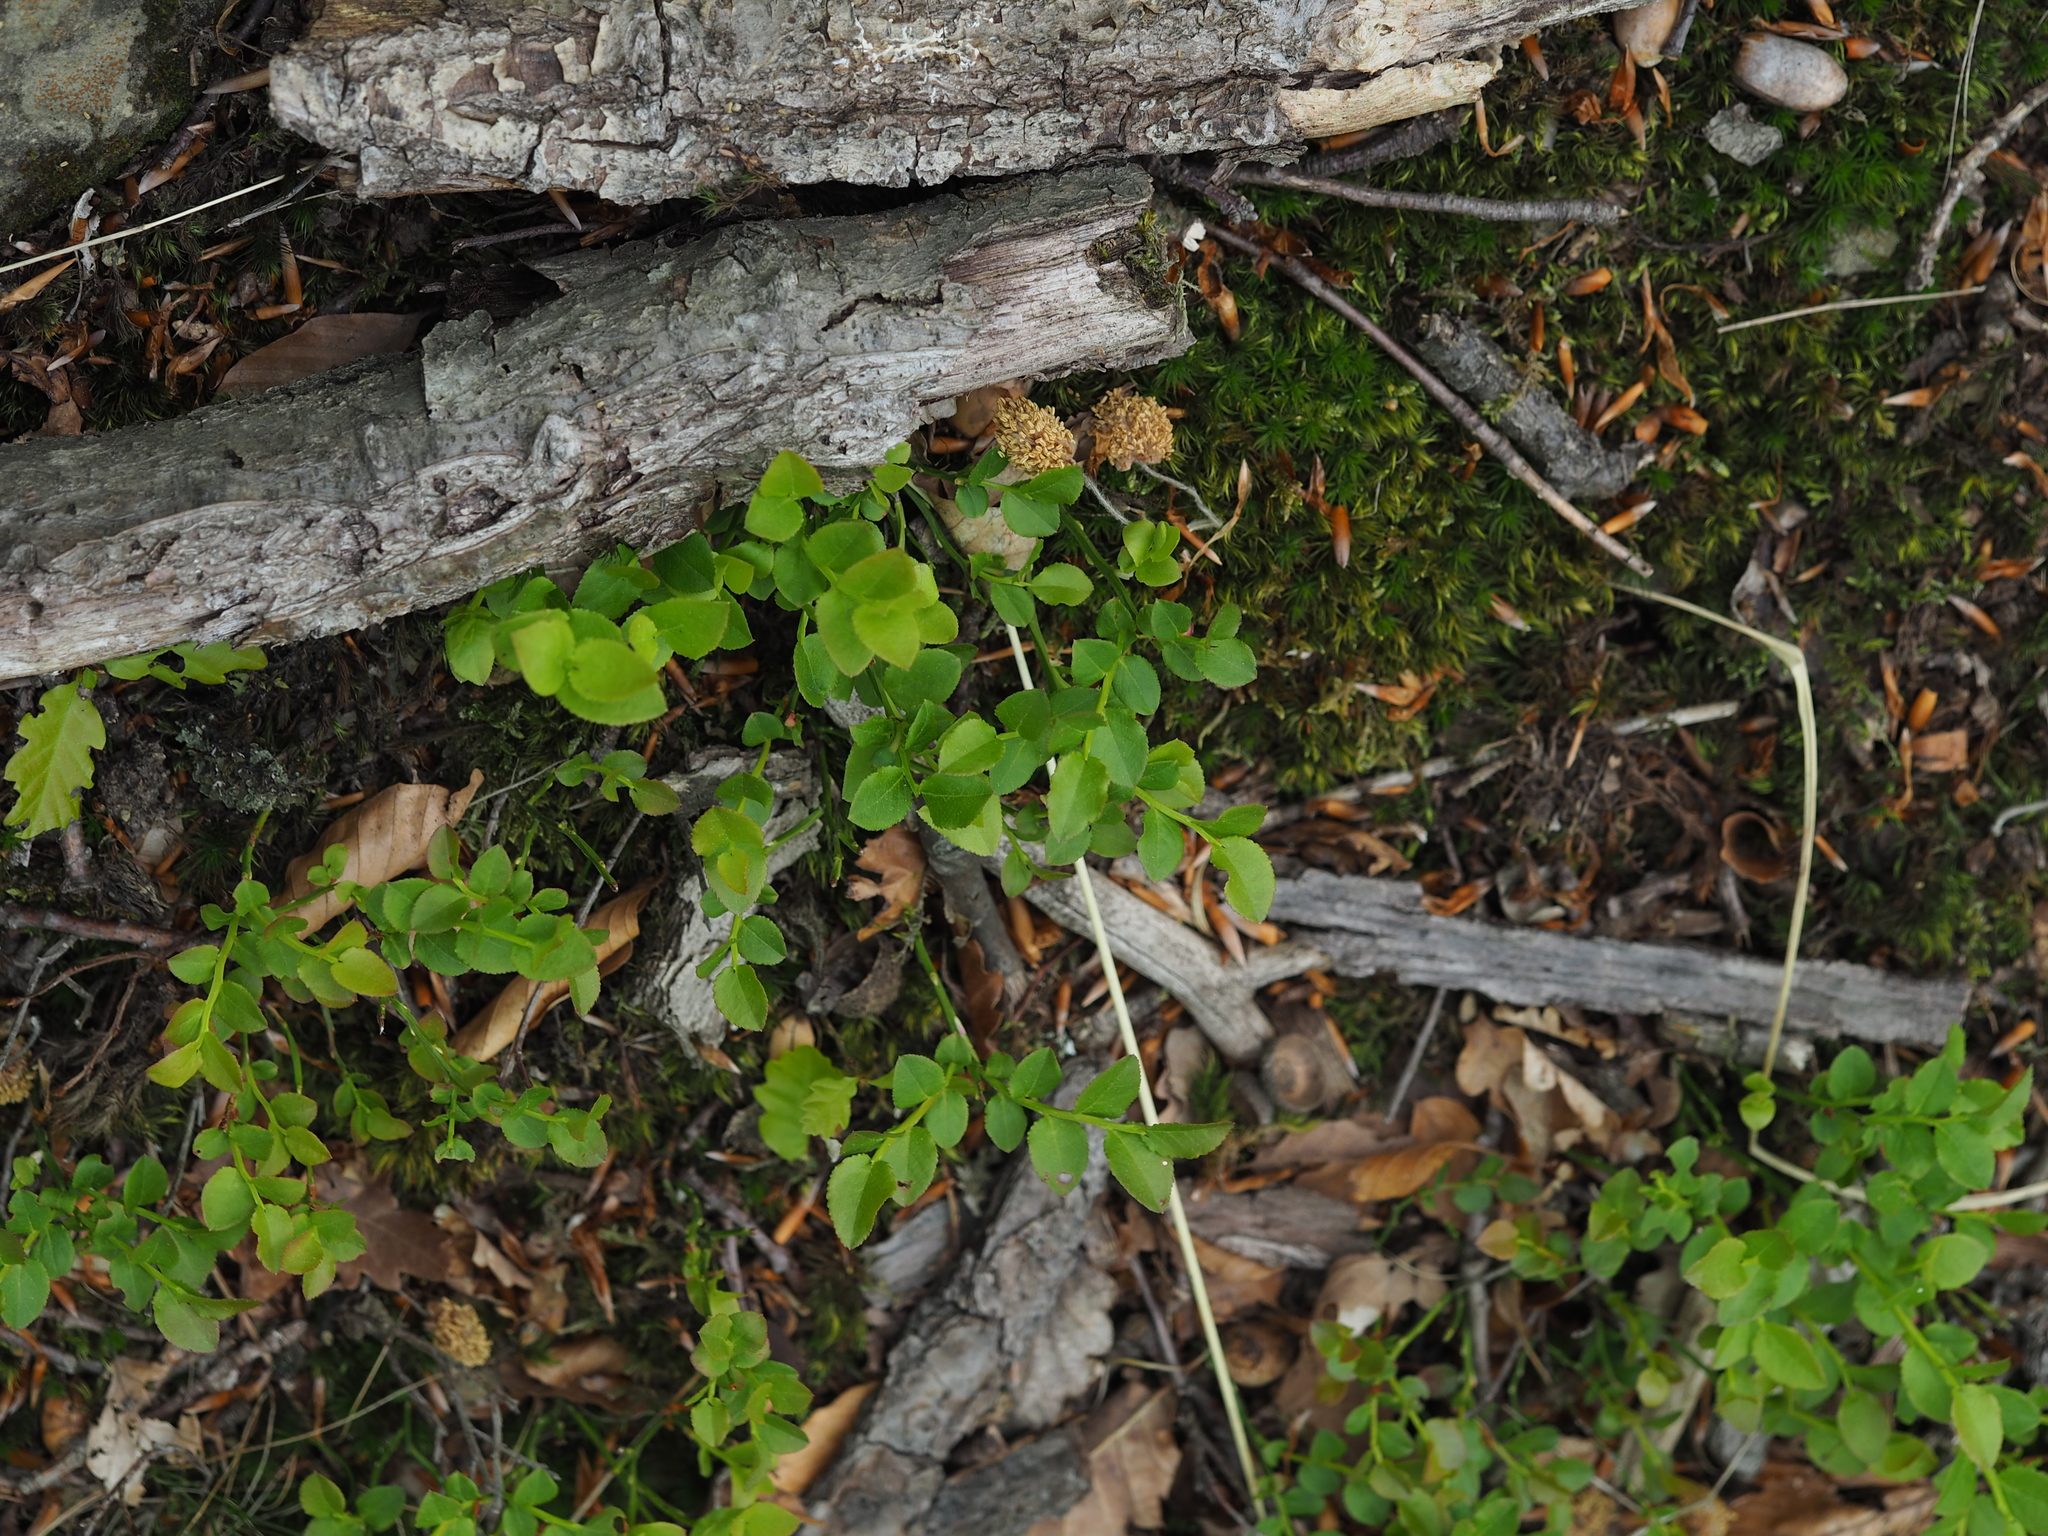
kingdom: Plantae
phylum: Tracheophyta
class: Magnoliopsida
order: Ericales
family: Ericaceae
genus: Vaccinium
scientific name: Vaccinium myrtillus
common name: Bilberry
